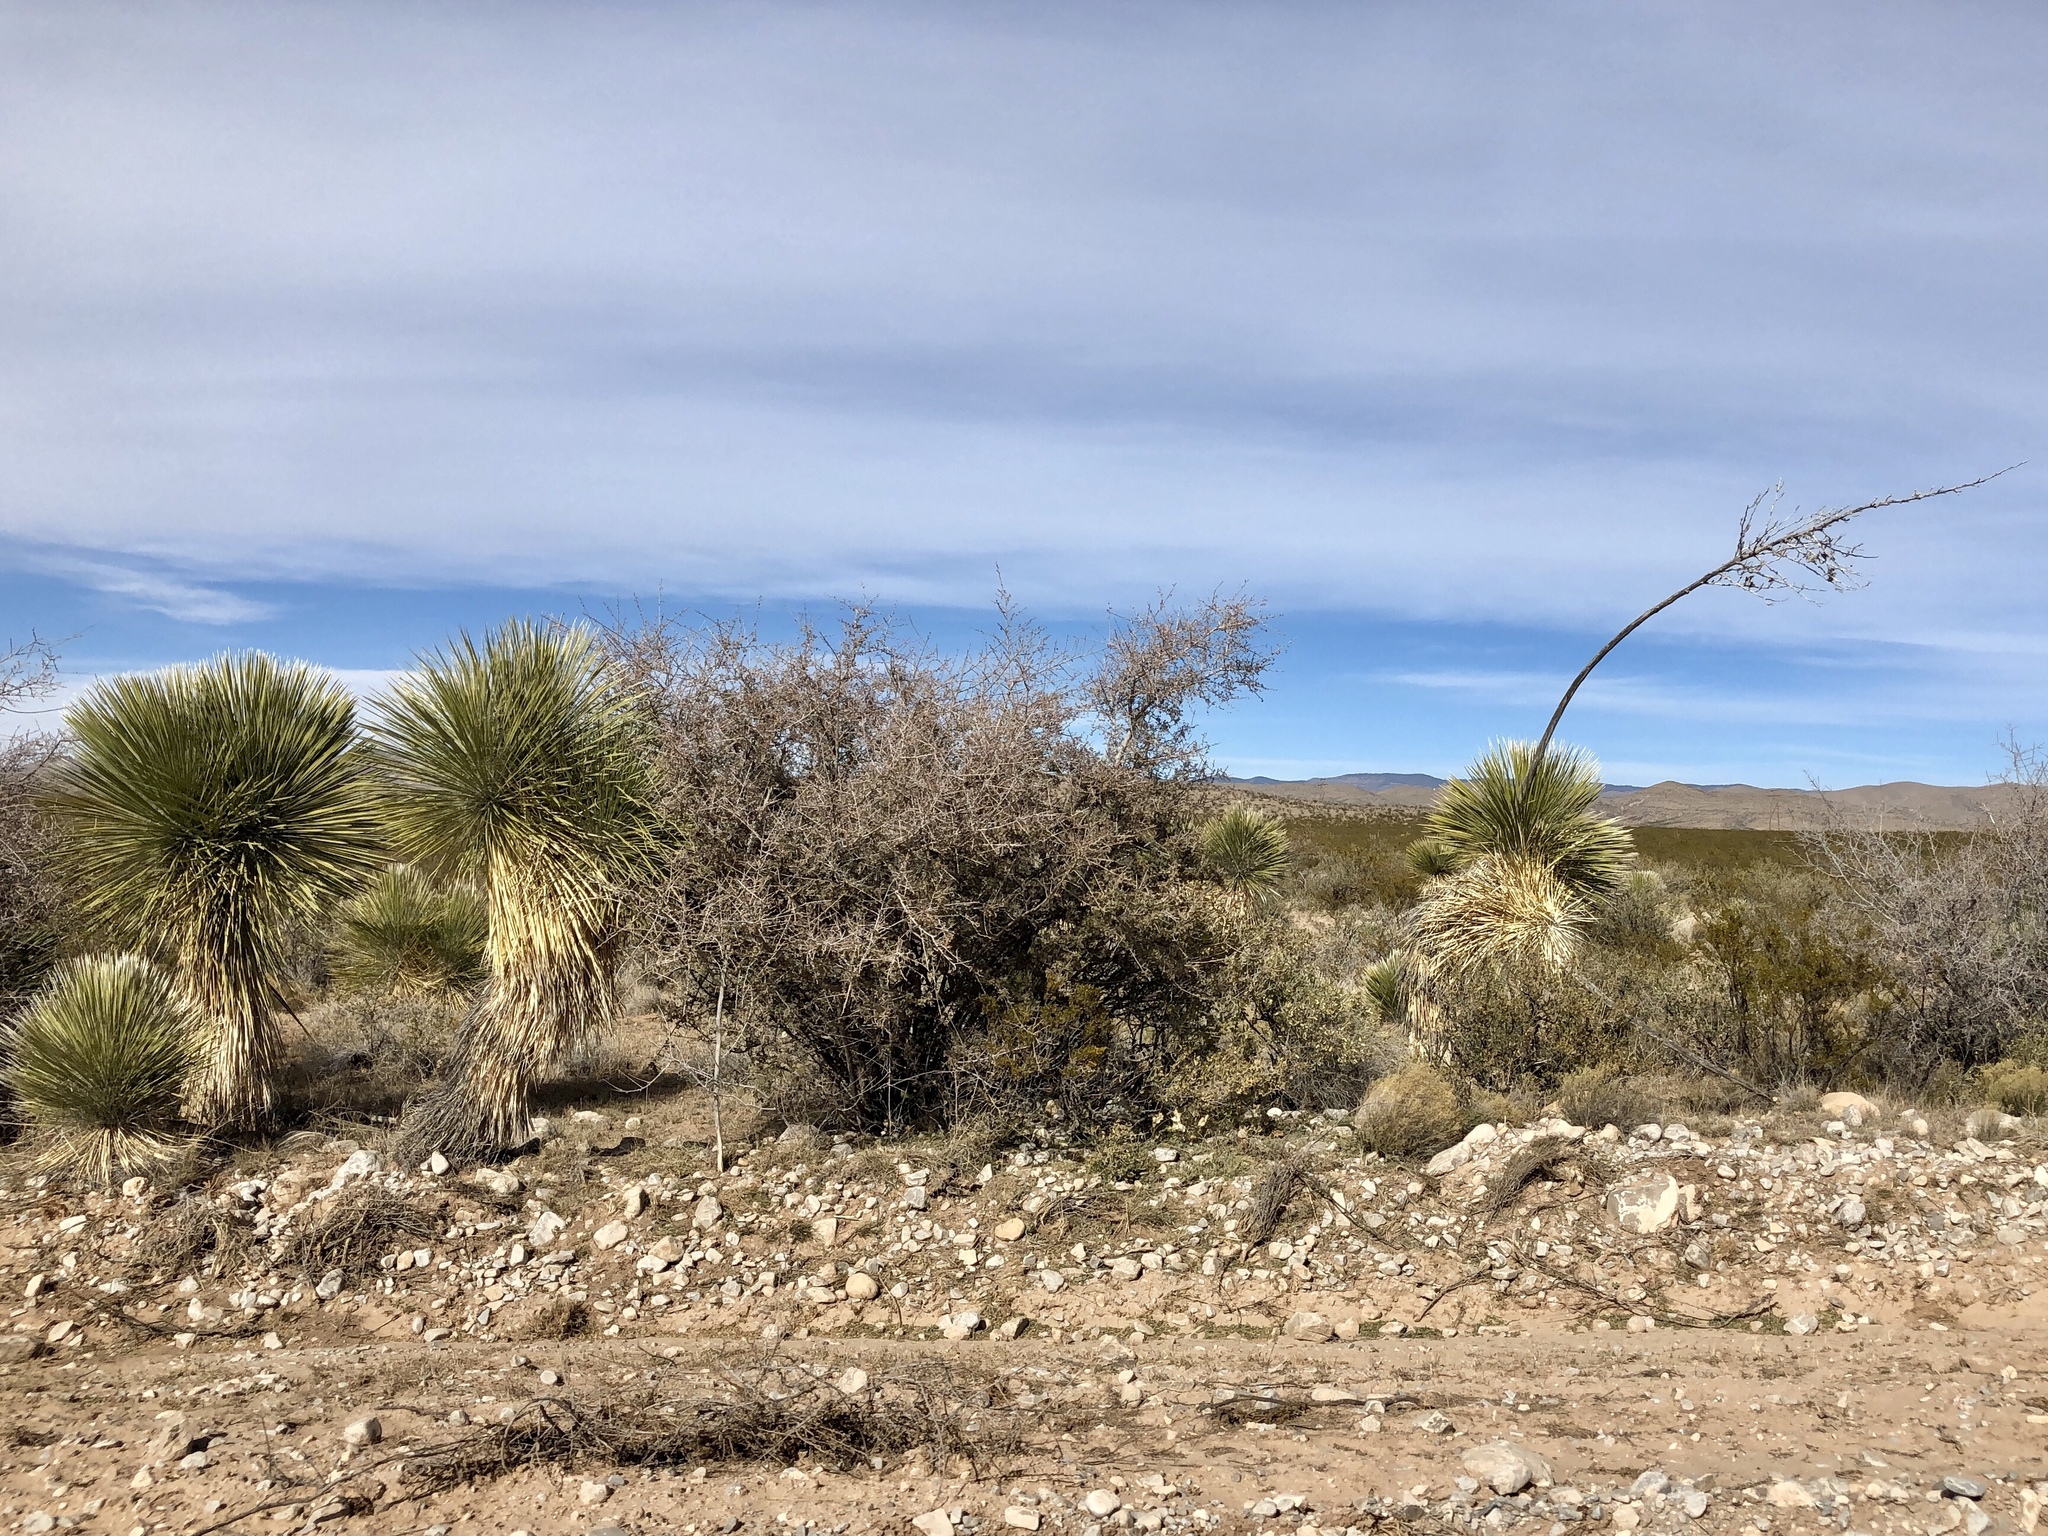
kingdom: Plantae
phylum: Tracheophyta
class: Liliopsida
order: Asparagales
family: Asparagaceae
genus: Yucca
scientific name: Yucca elata
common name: Palmella
